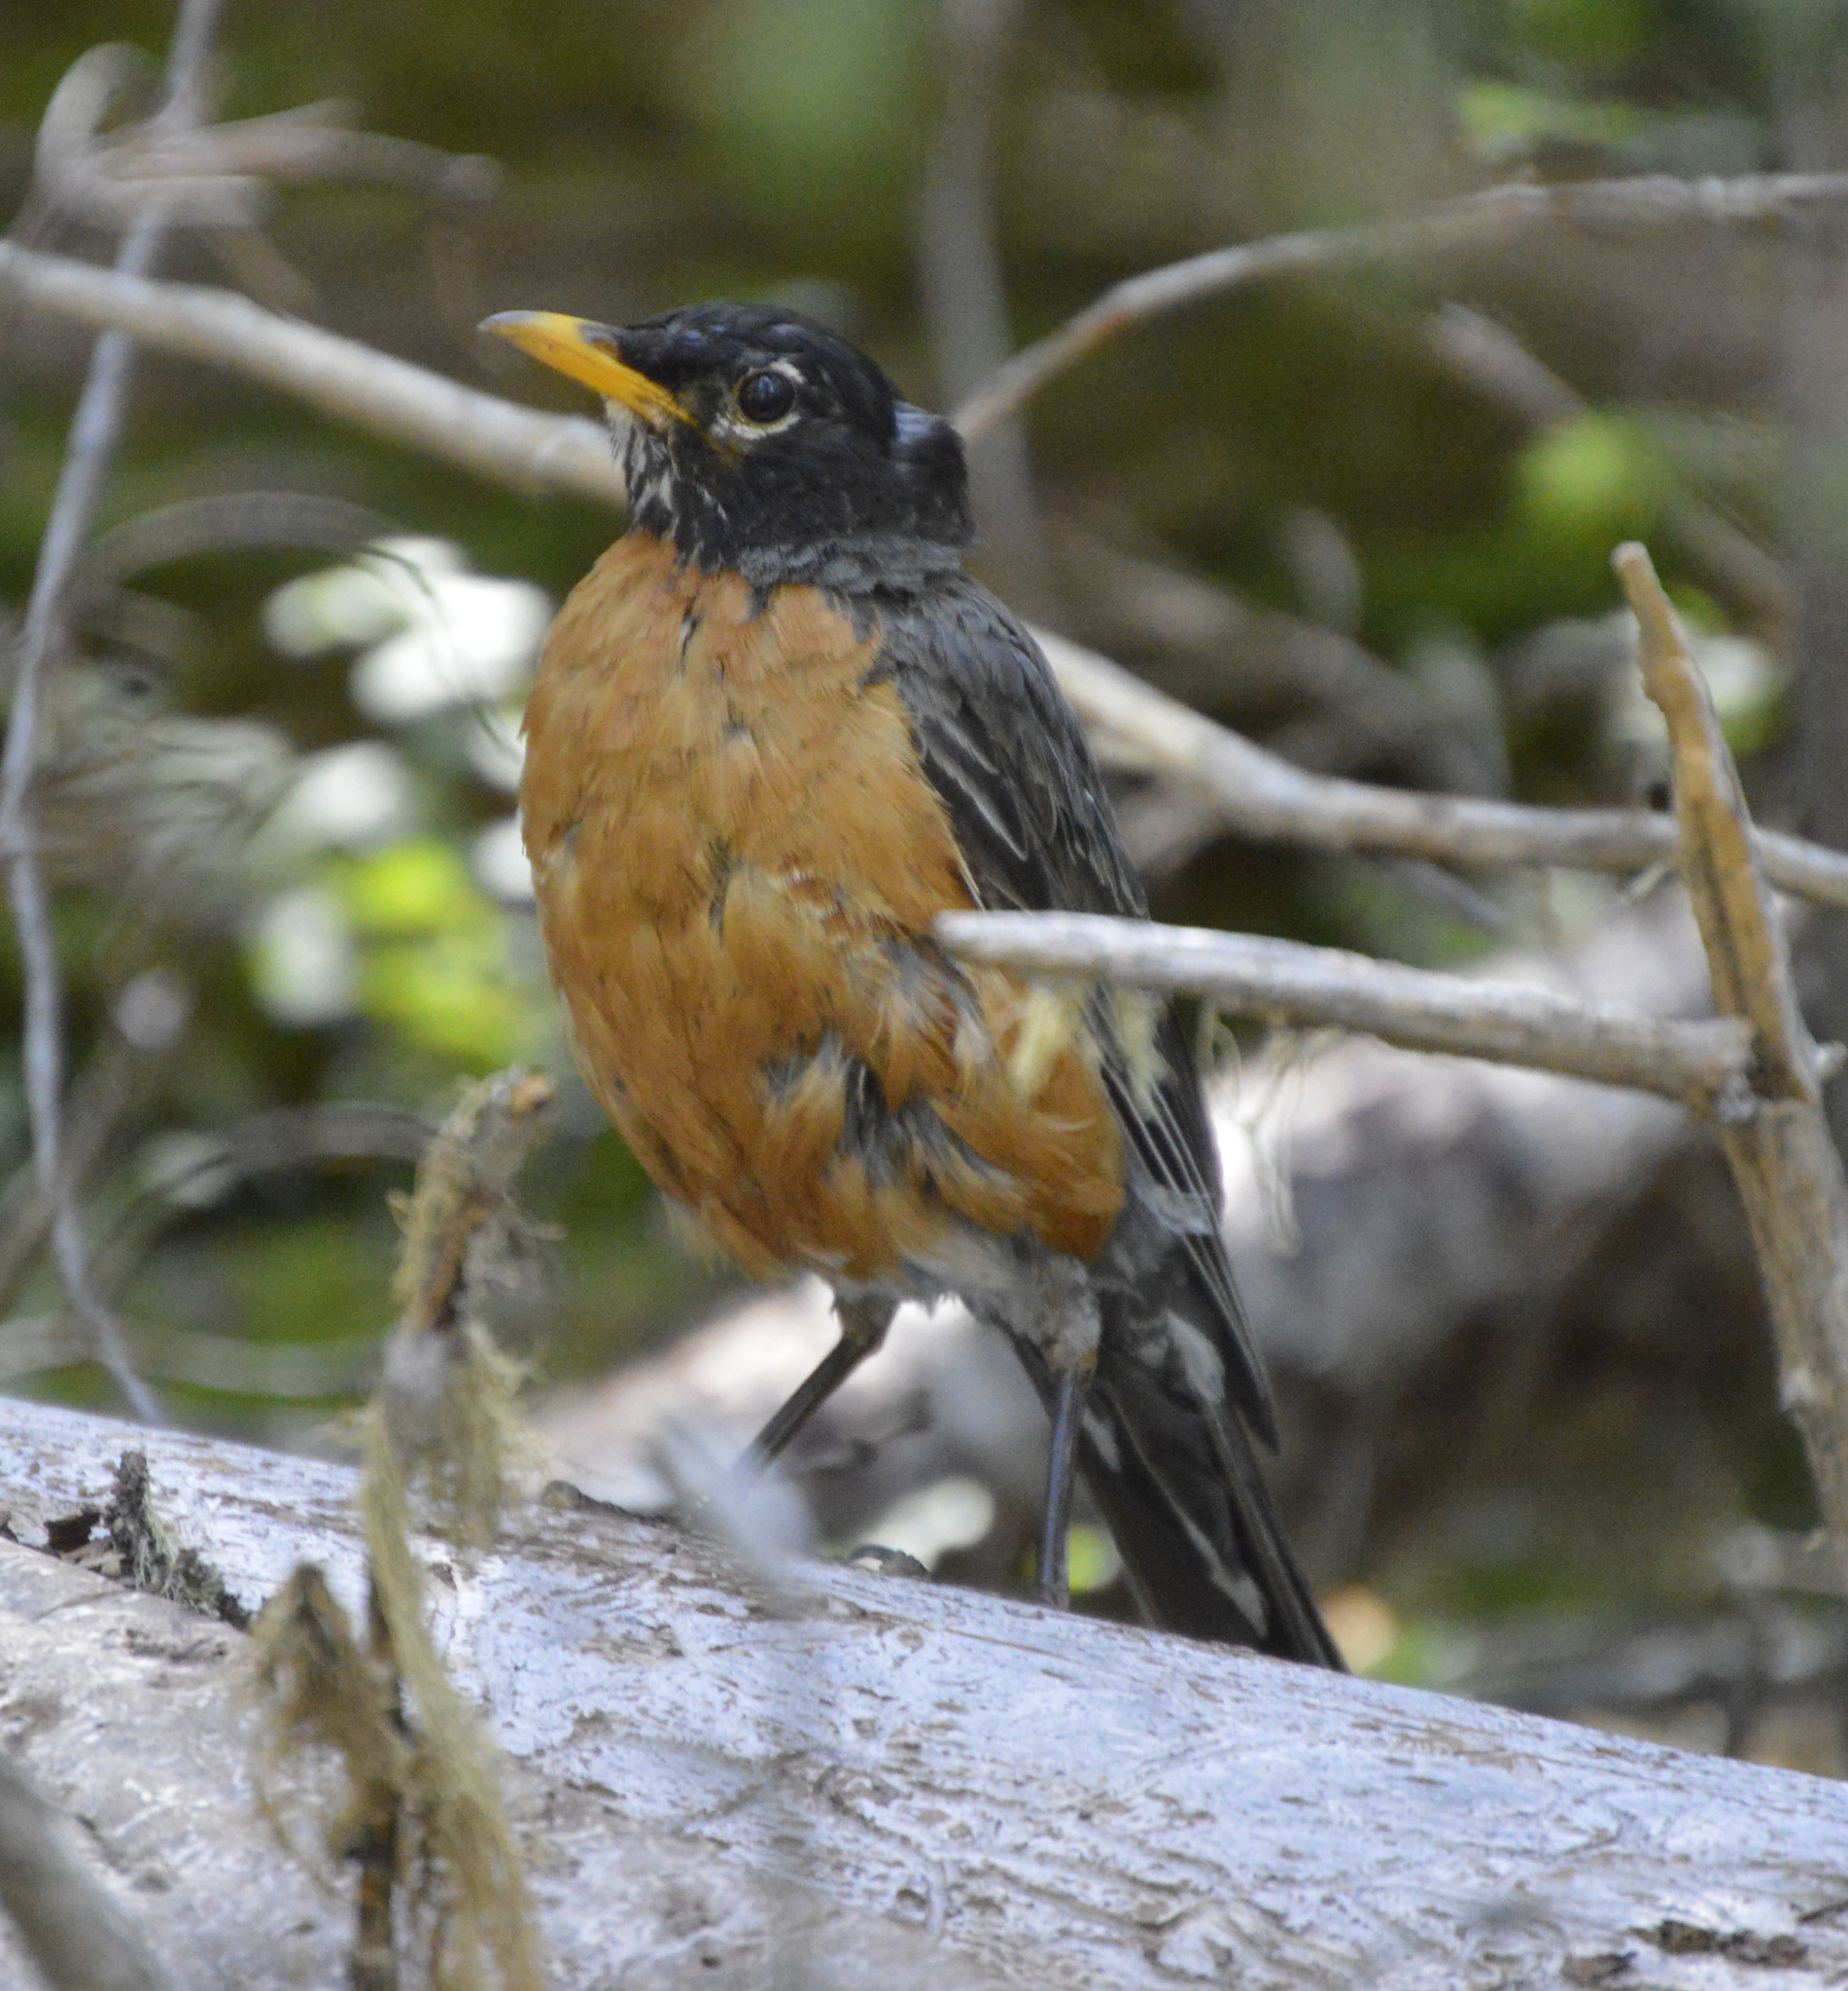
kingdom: Animalia
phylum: Chordata
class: Aves
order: Passeriformes
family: Turdidae
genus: Turdus
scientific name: Turdus migratorius
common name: American robin
